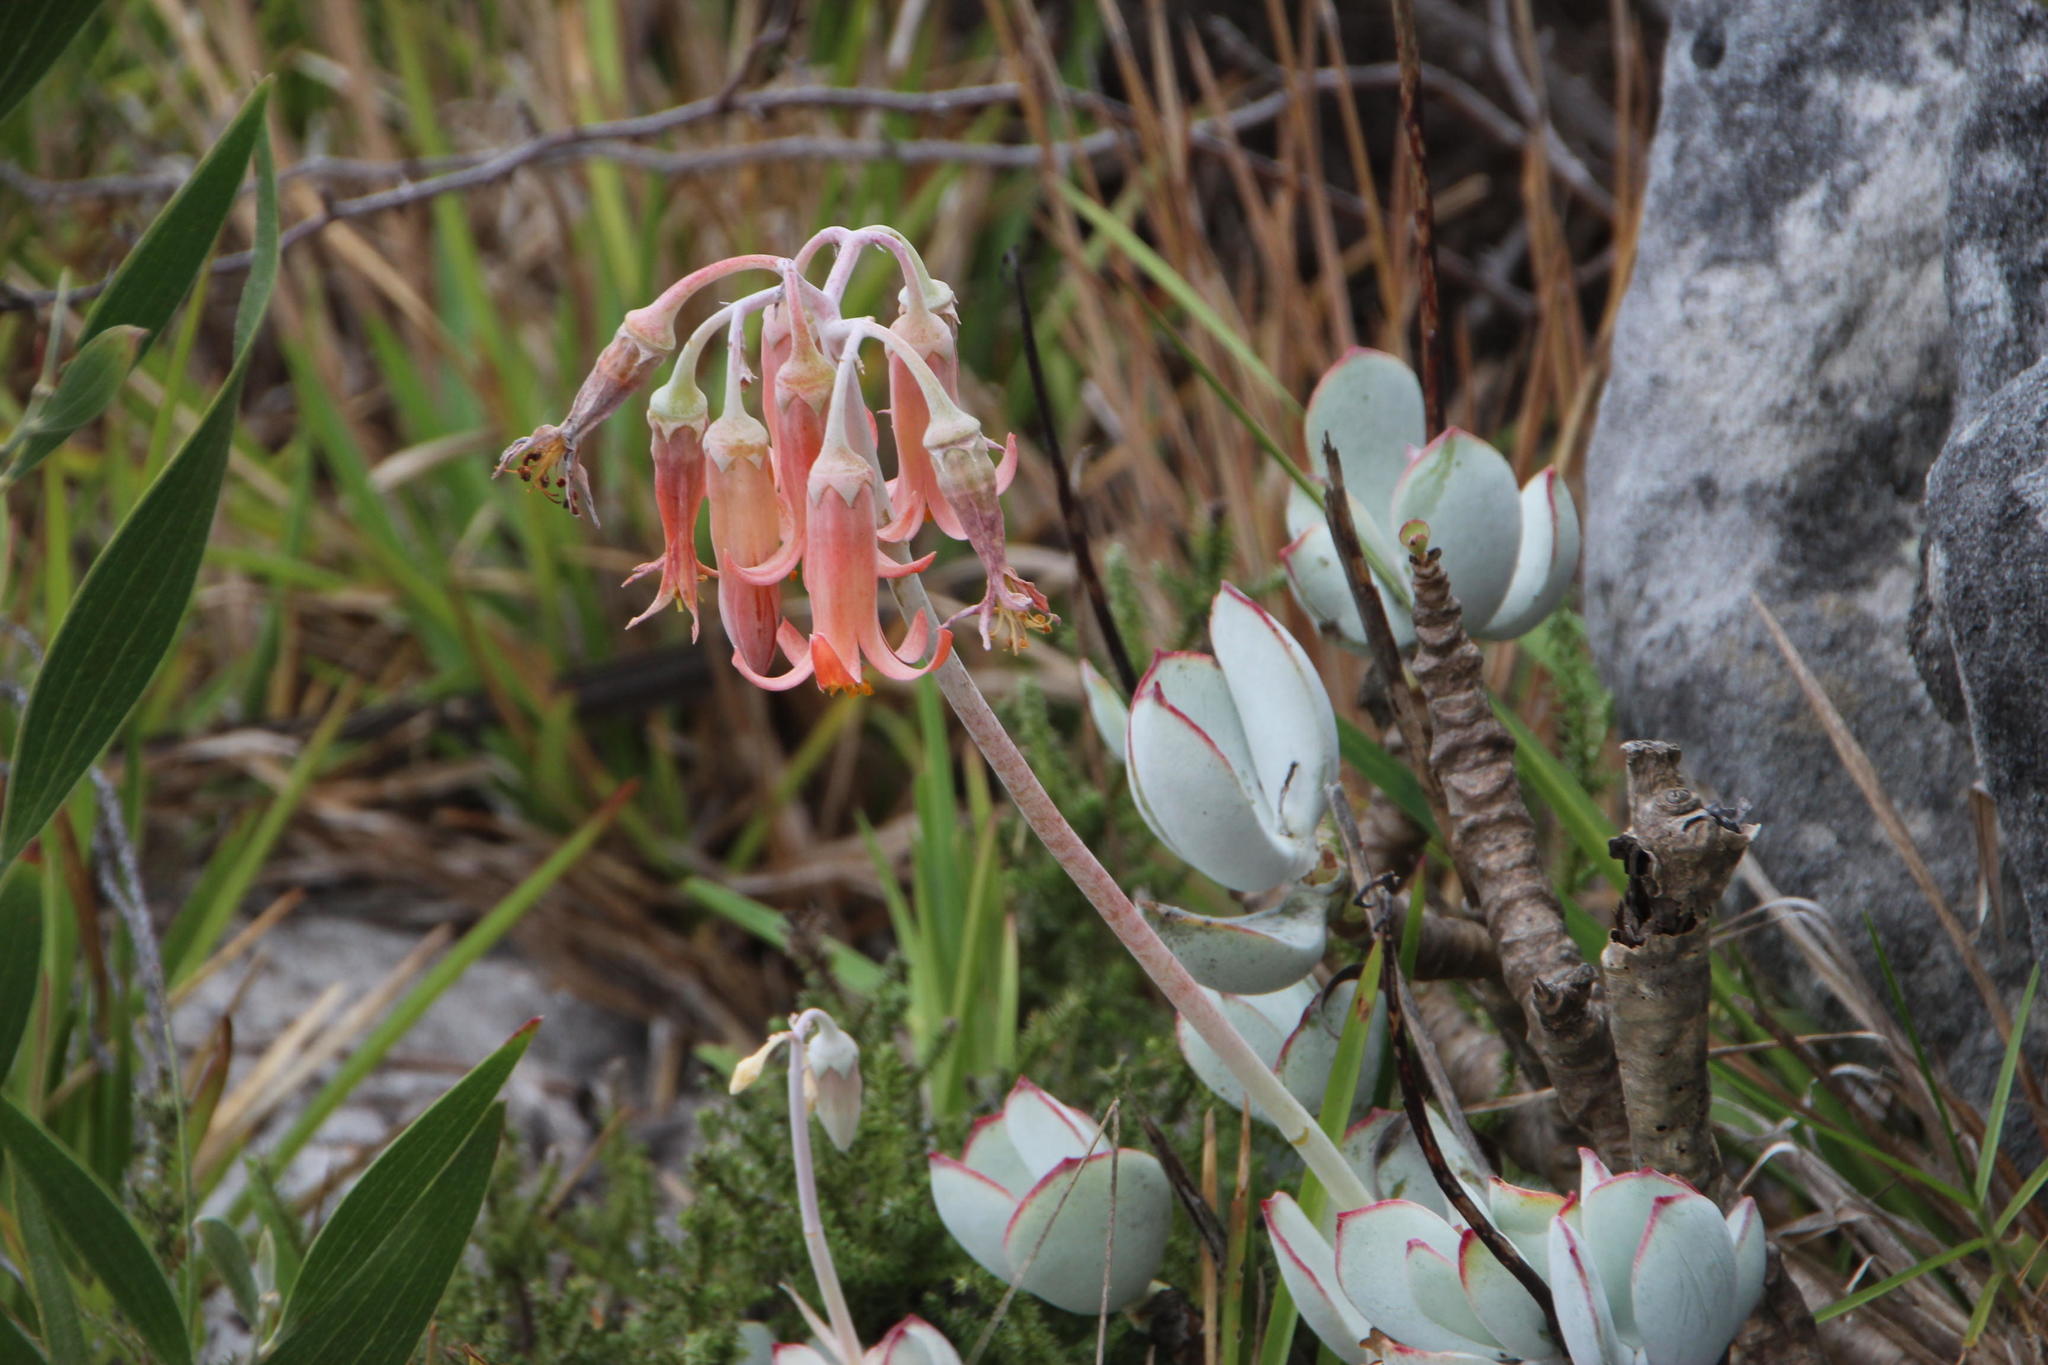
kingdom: Plantae
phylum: Tracheophyta
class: Magnoliopsida
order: Saxifragales
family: Crassulaceae
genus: Cotyledon
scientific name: Cotyledon orbiculata
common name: Pig's ear
